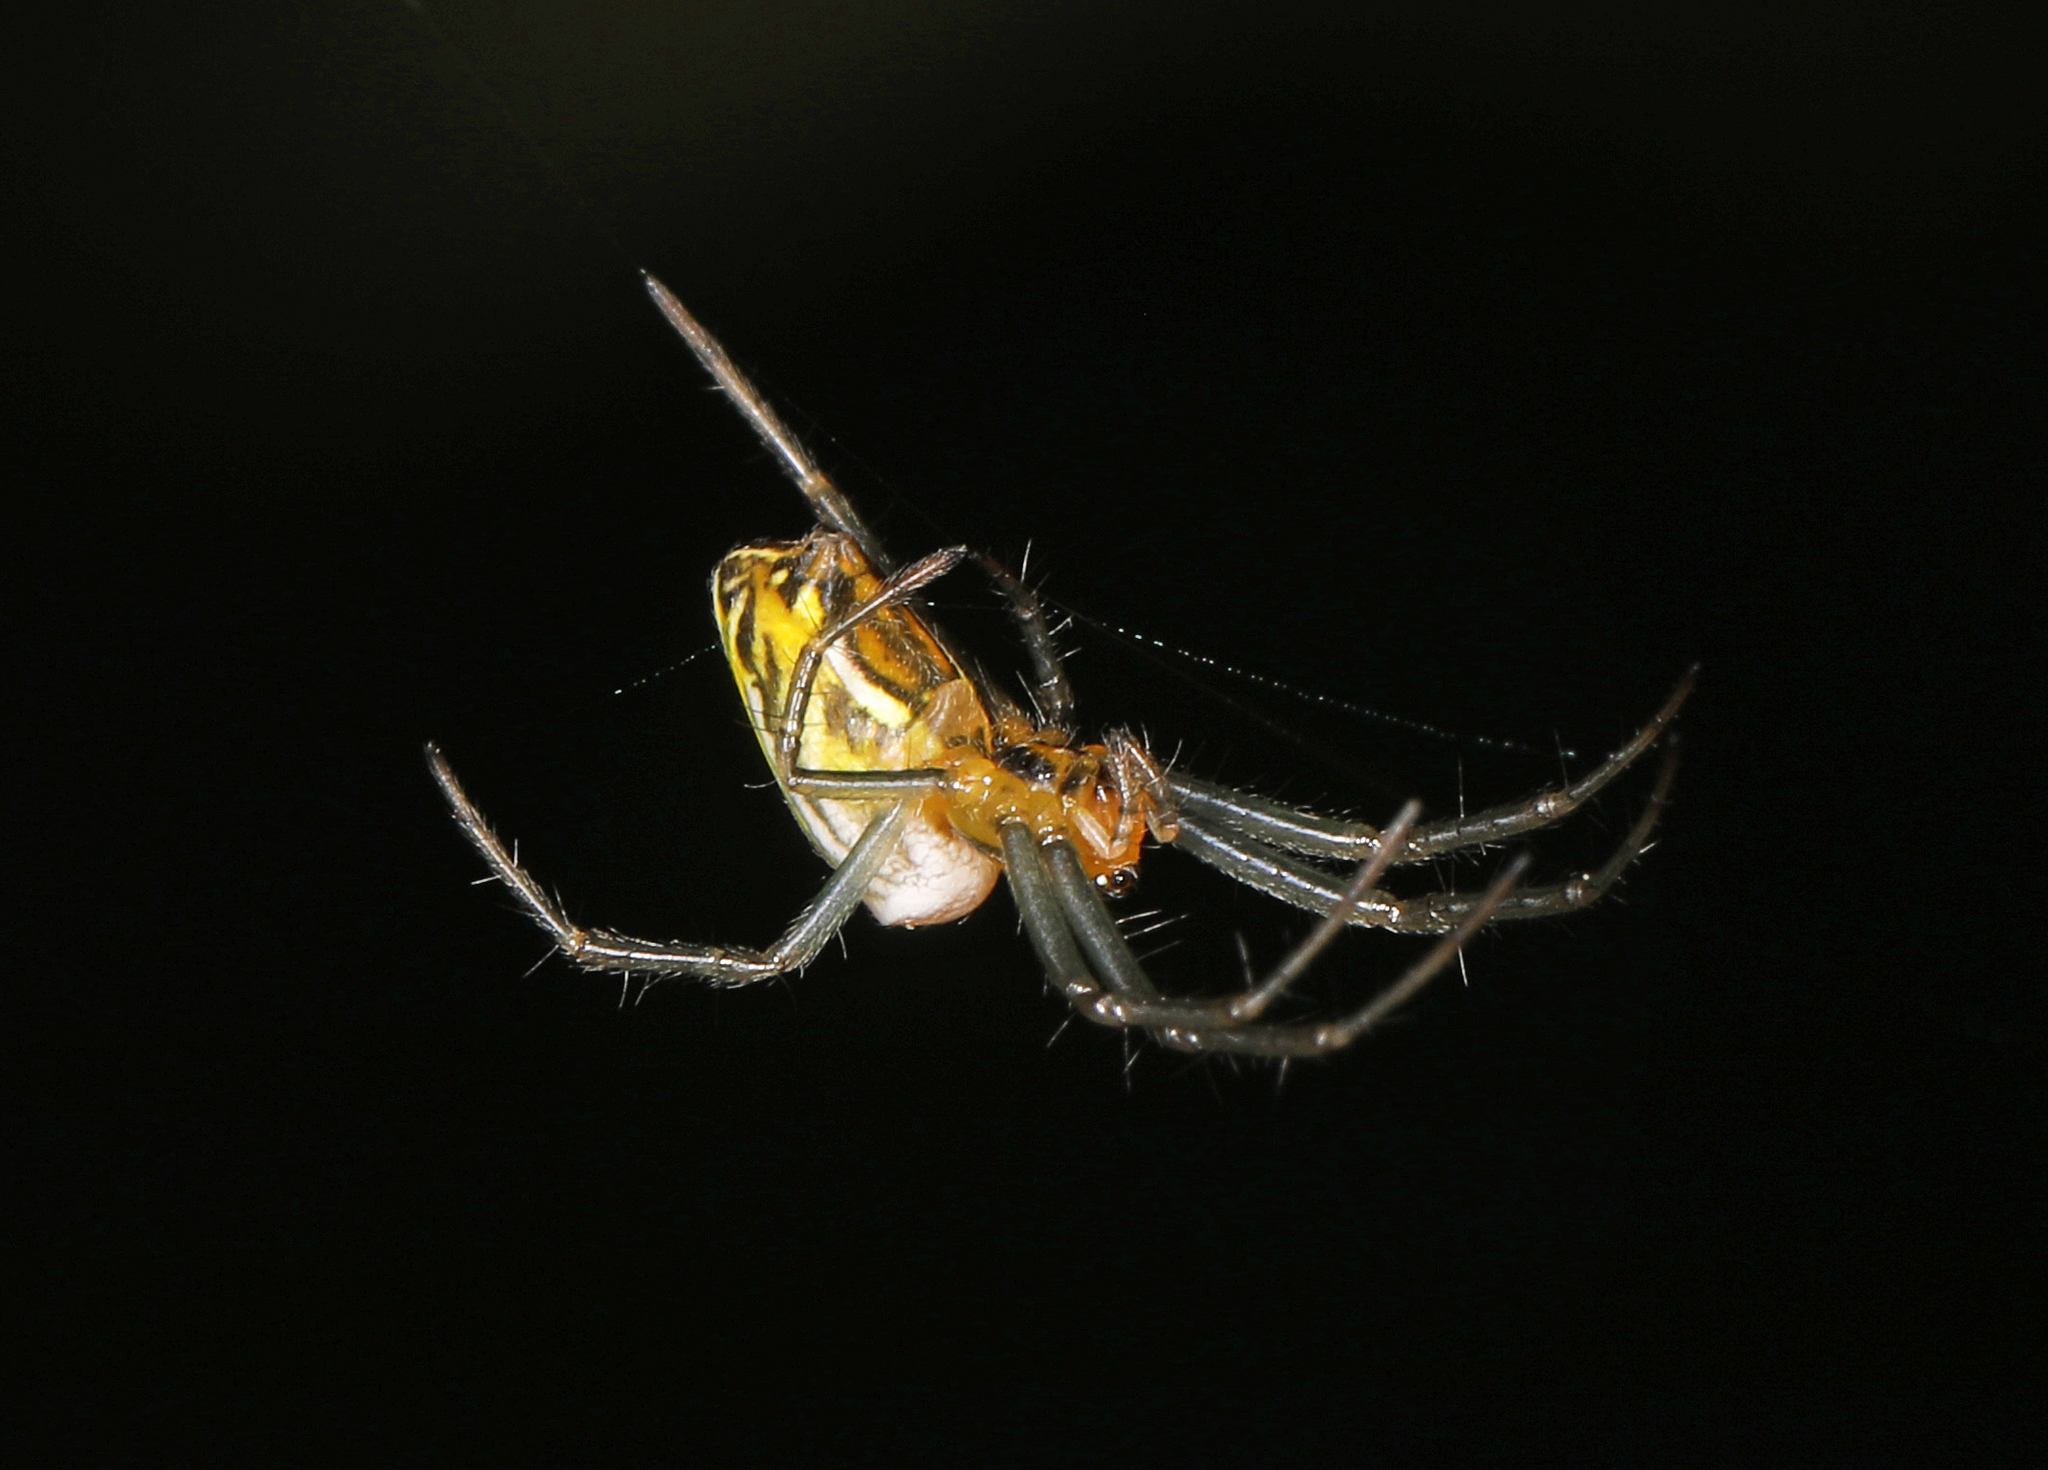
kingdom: Animalia
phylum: Arthropoda
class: Arachnida
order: Araneae
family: Araneidae
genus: Mecynogea
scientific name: Mecynogea lemniscata
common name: Orb weavers
